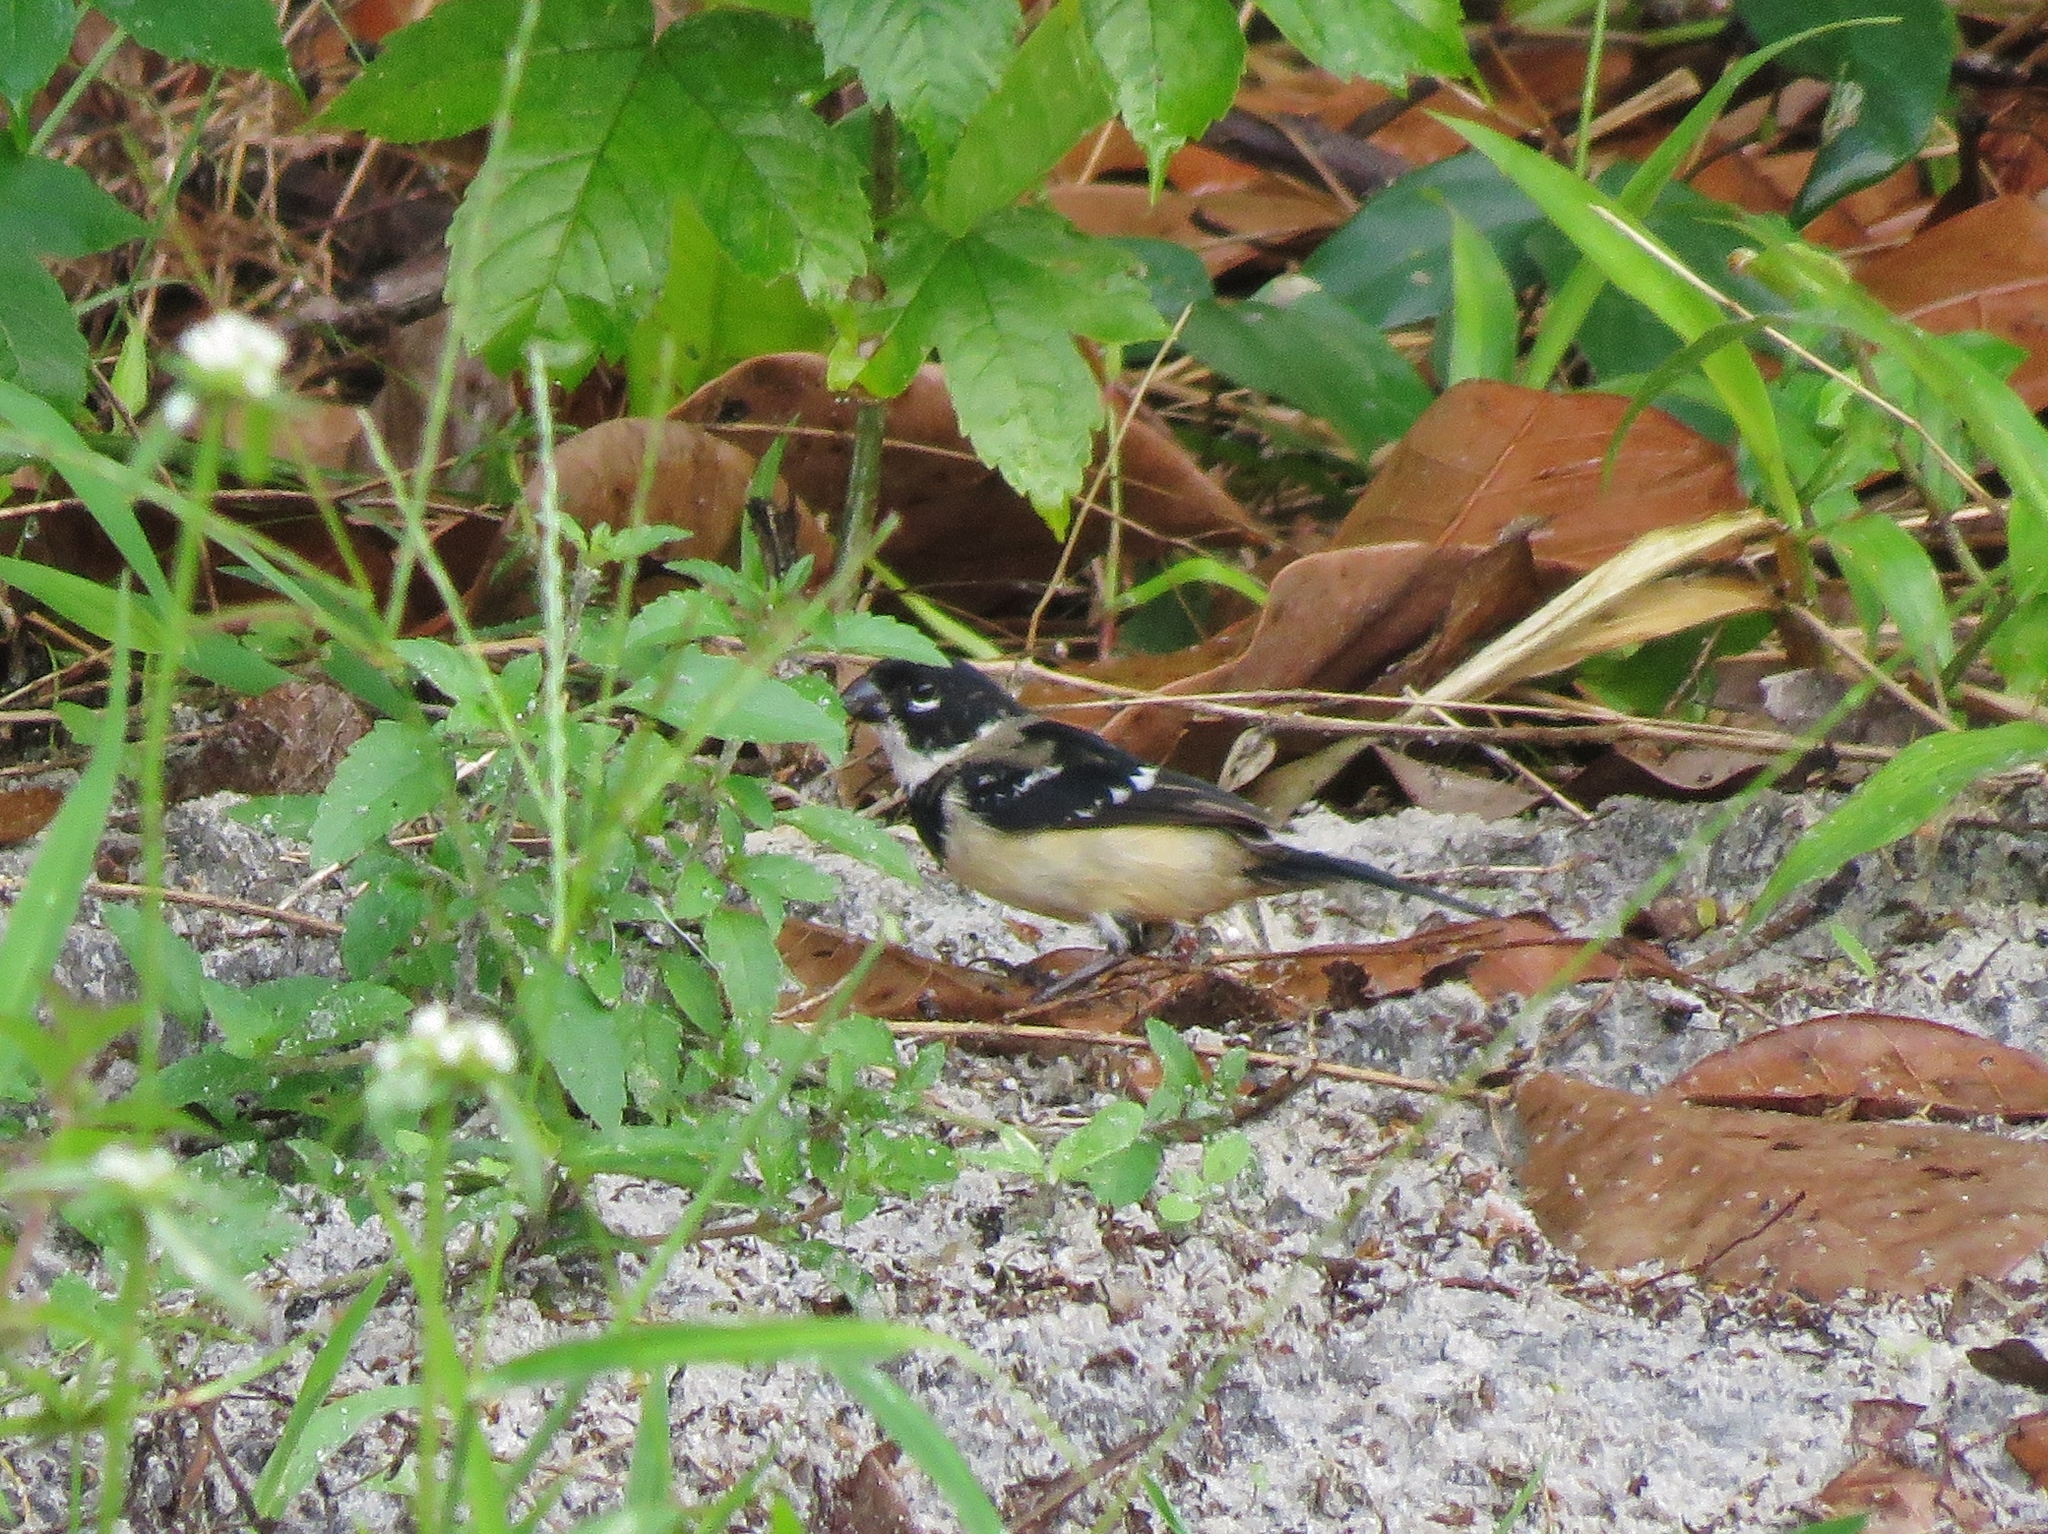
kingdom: Animalia
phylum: Chordata
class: Aves
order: Passeriformes
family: Thraupidae
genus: Sporophila
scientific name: Sporophila morelleti
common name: Morelet's seedeater
